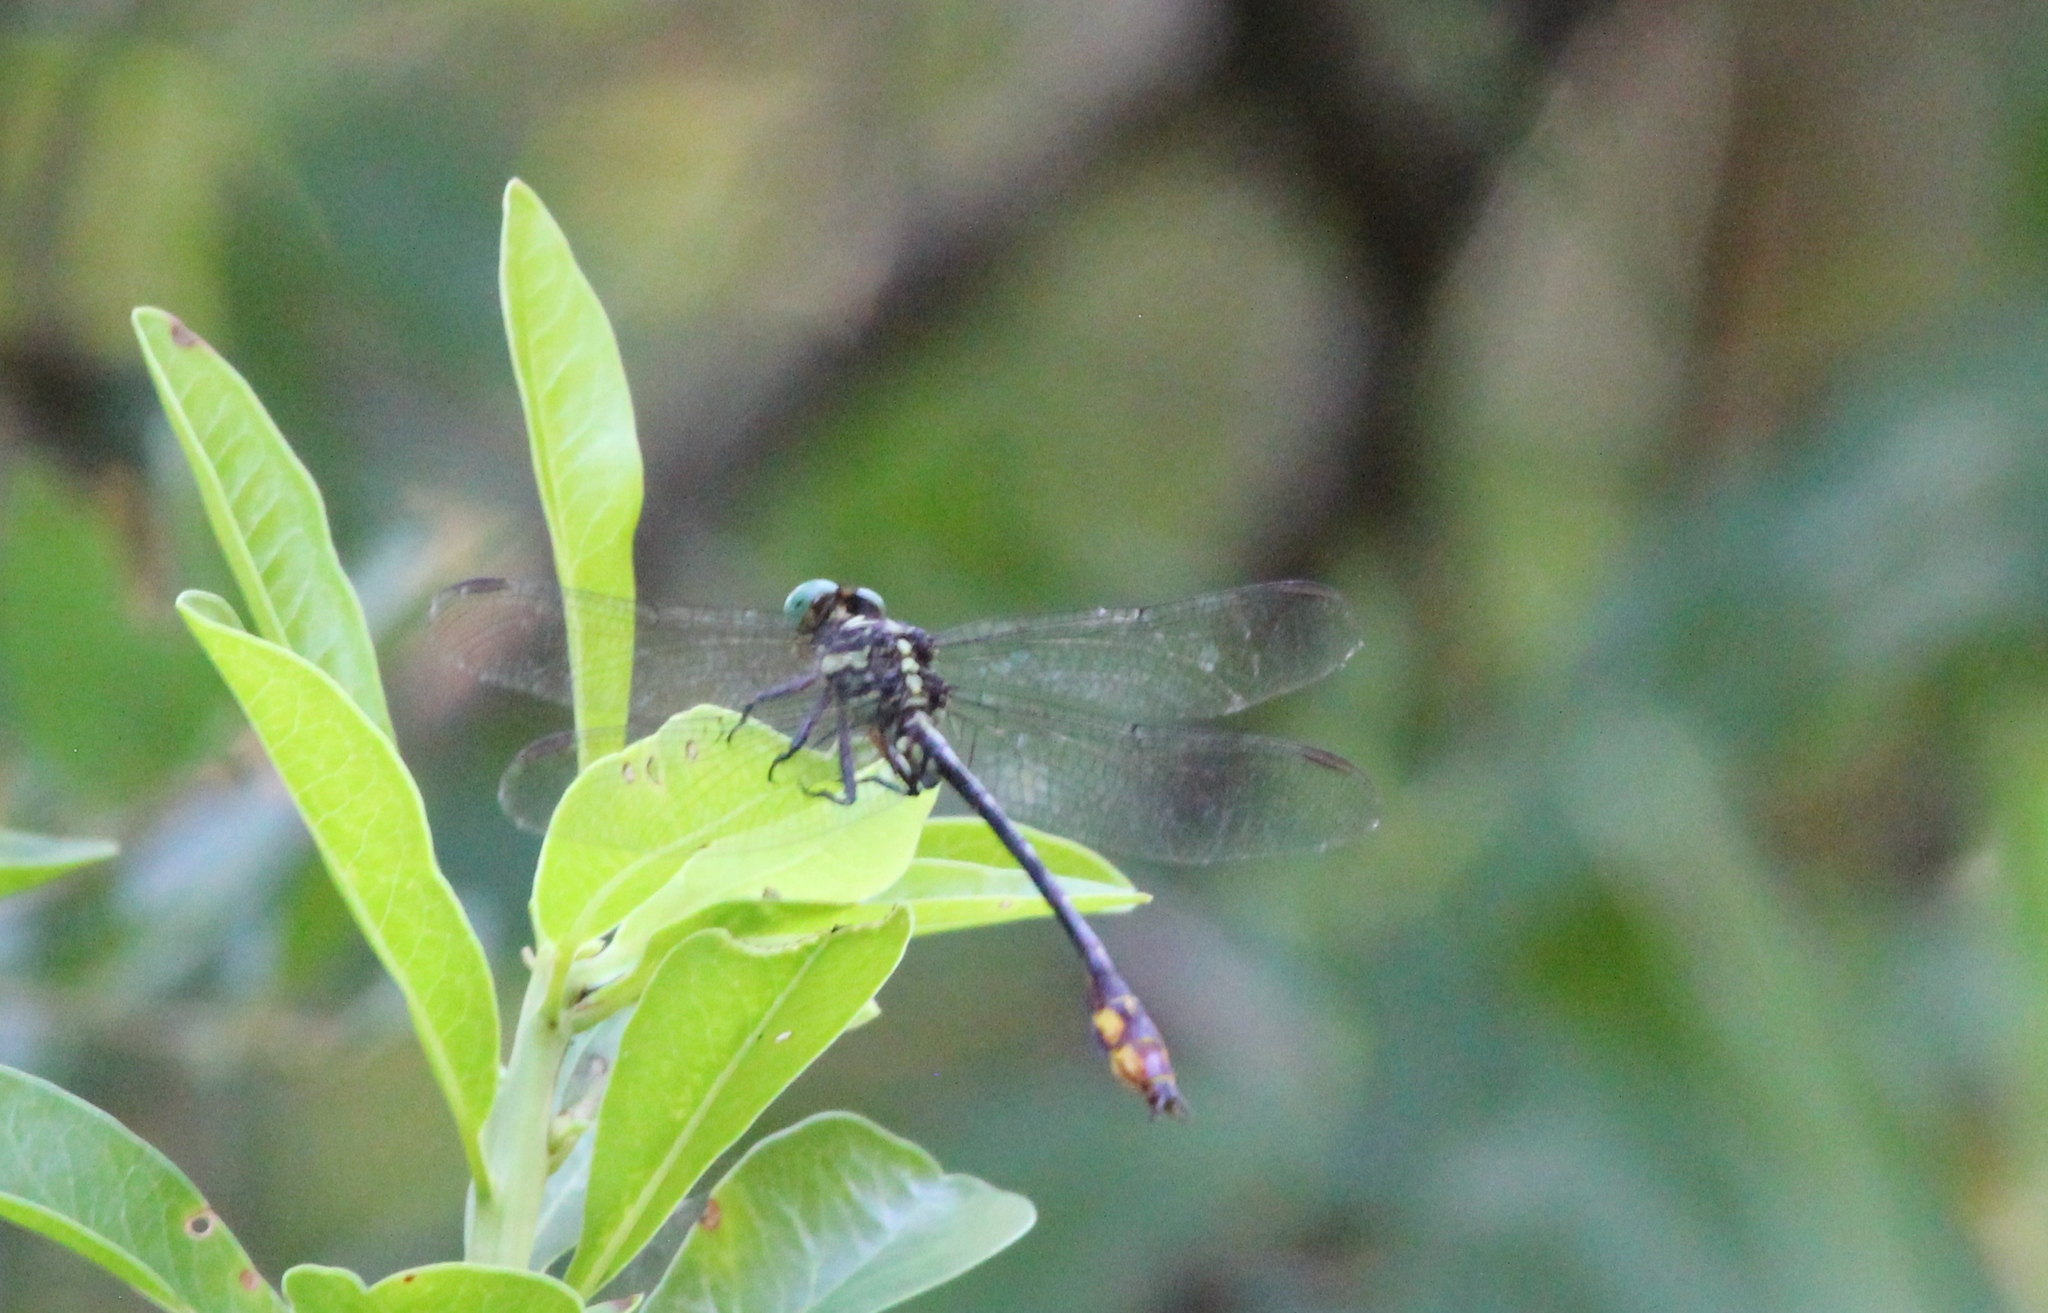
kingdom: Animalia
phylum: Arthropoda
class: Insecta
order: Odonata
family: Gomphidae
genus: Stylurus
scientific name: Stylurus laurae
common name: Laura's clubtail
